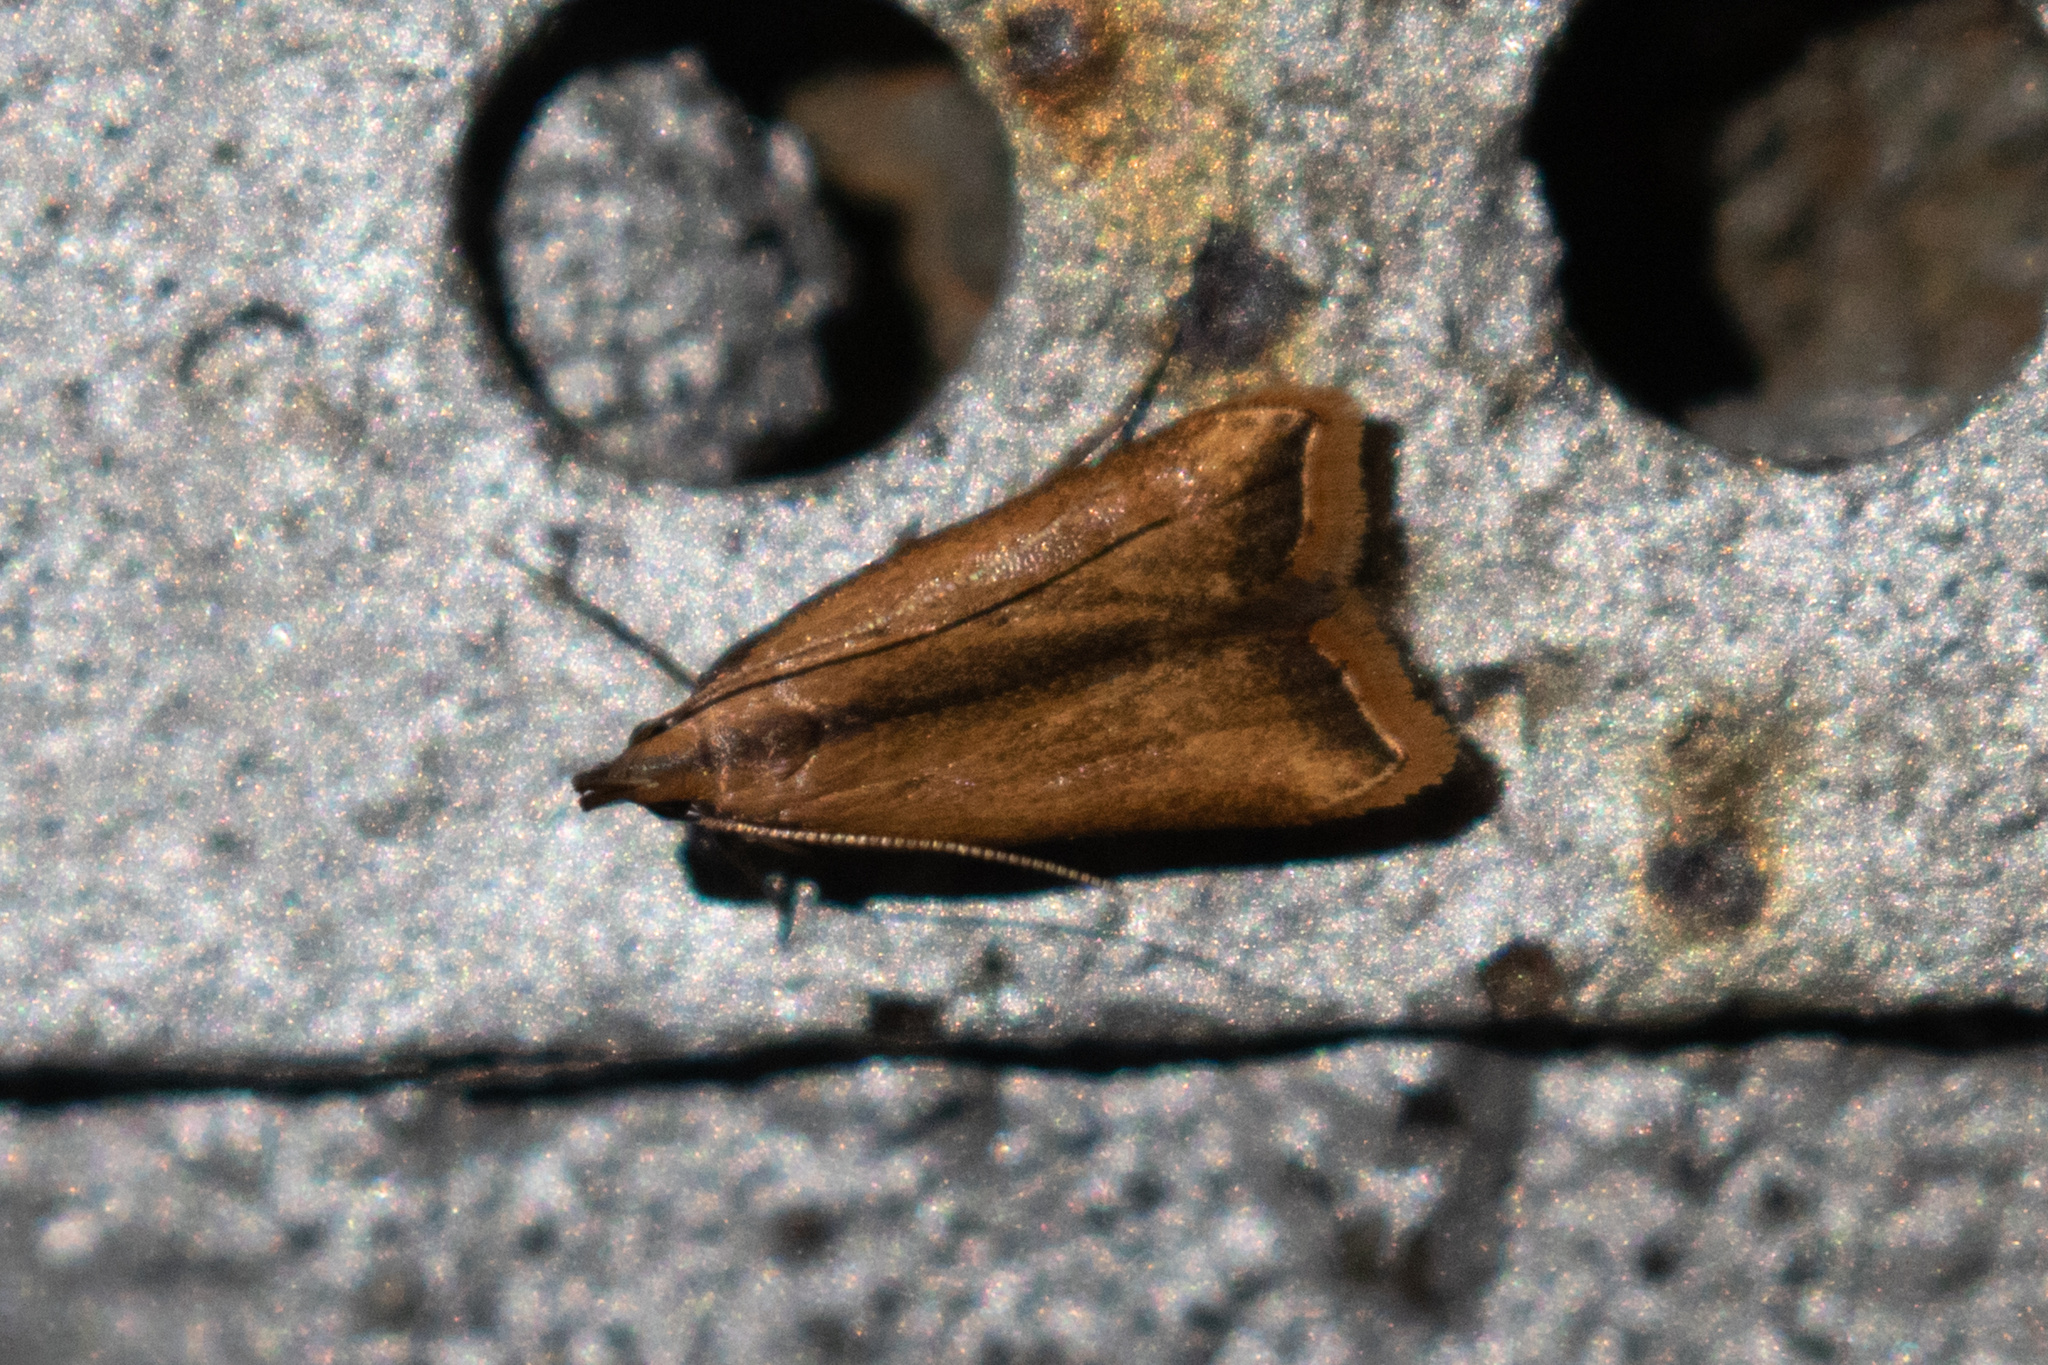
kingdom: Animalia
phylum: Arthropoda
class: Insecta
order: Lepidoptera
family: Gelechiidae
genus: Dichomeris
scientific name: Dichomeris heriguronis
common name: Black-edged dichomeris moth
